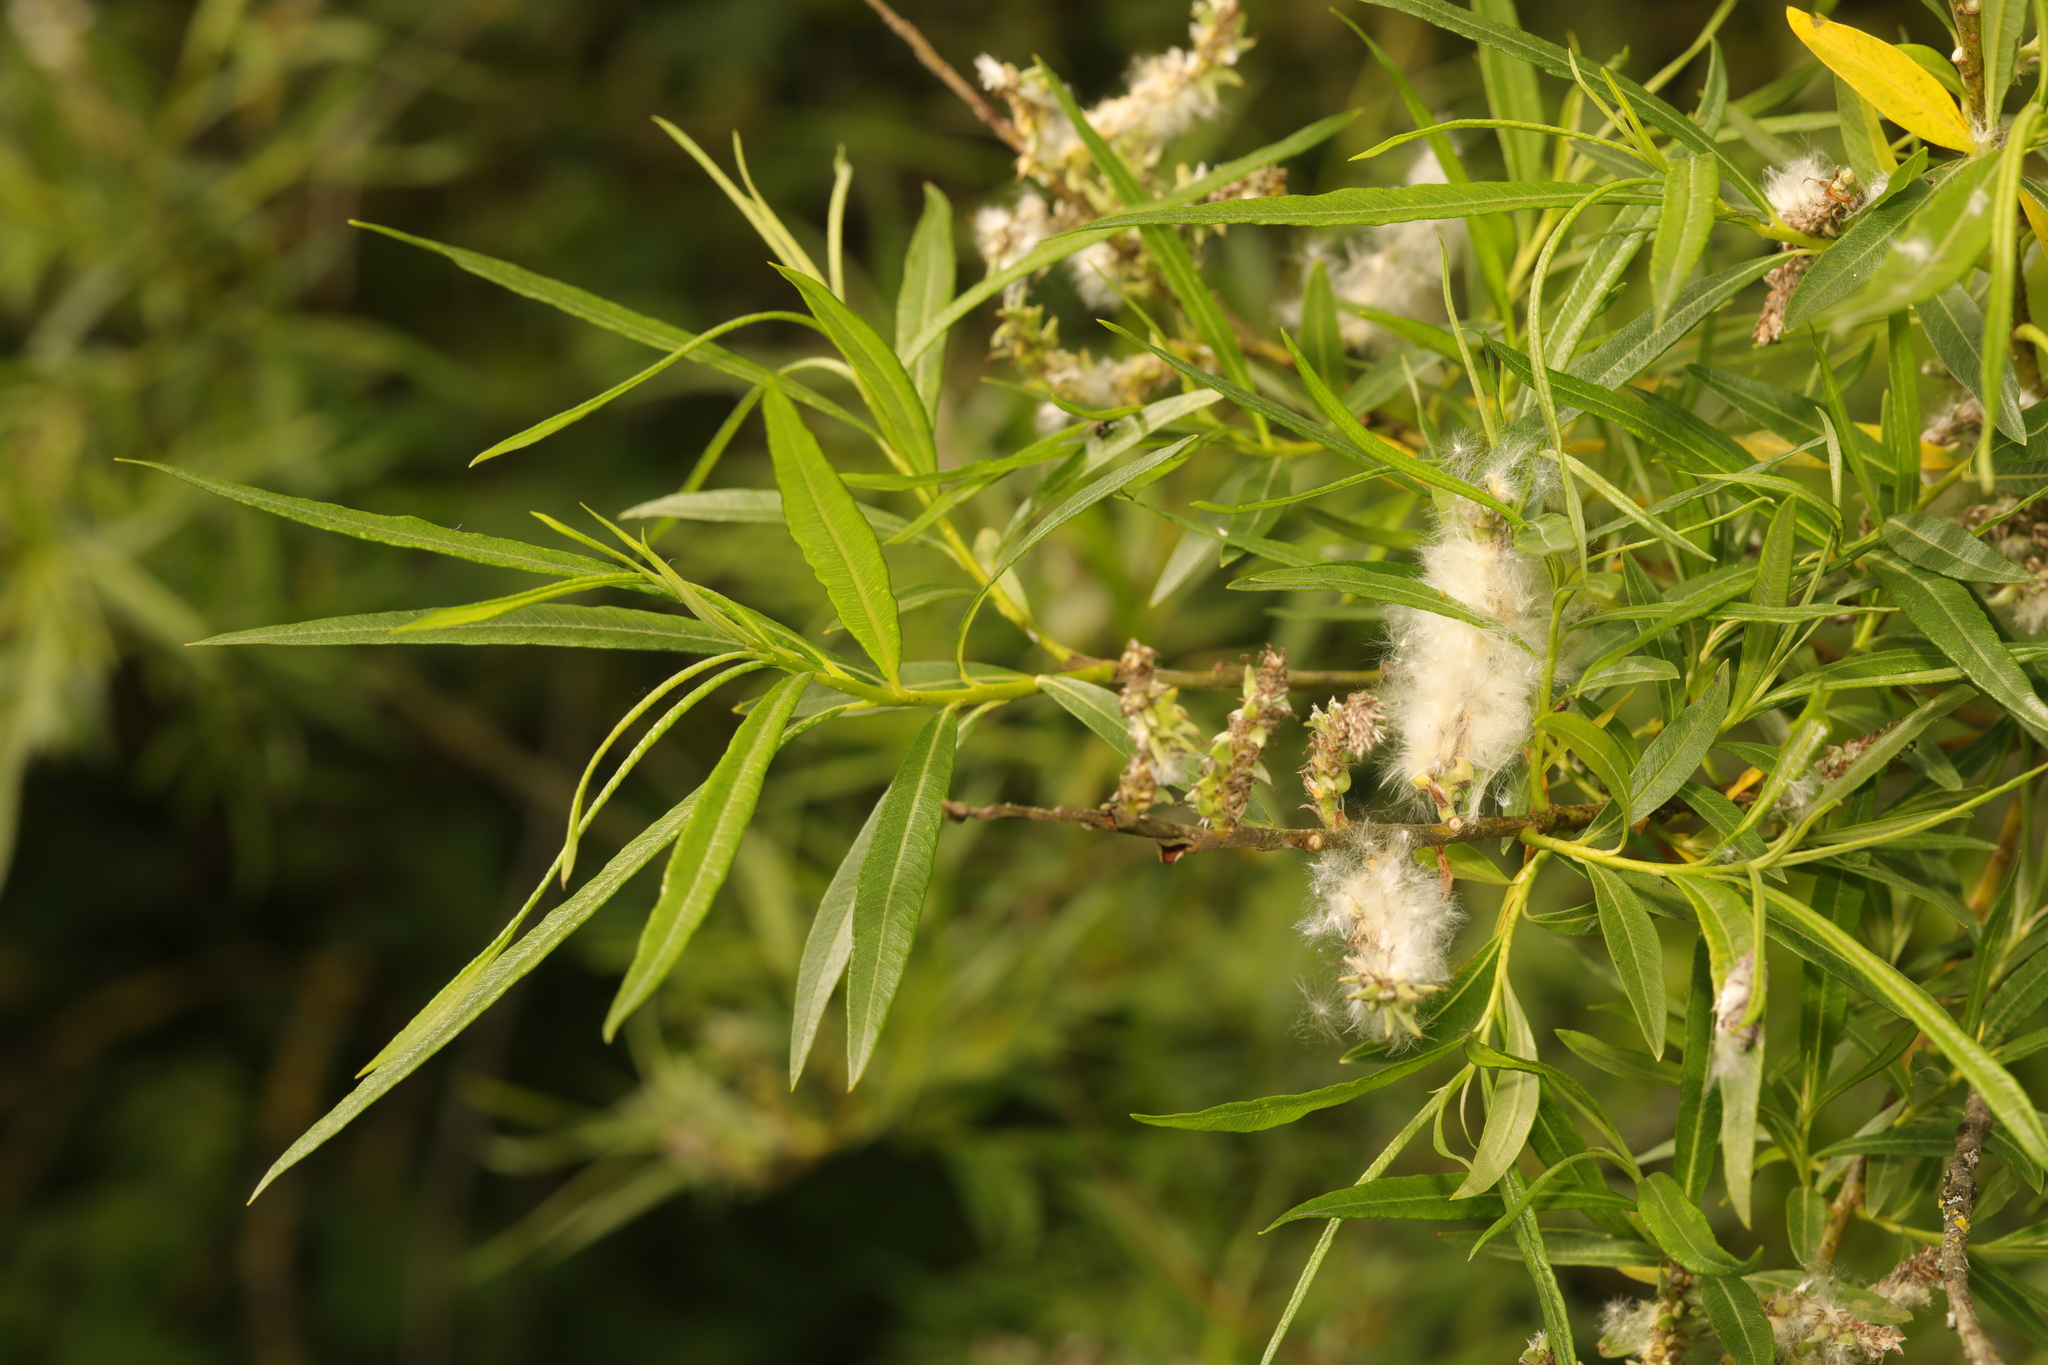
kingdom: Plantae
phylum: Tracheophyta
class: Magnoliopsida
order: Malpighiales
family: Salicaceae
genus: Salix
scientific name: Salix viminalis
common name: Osier
